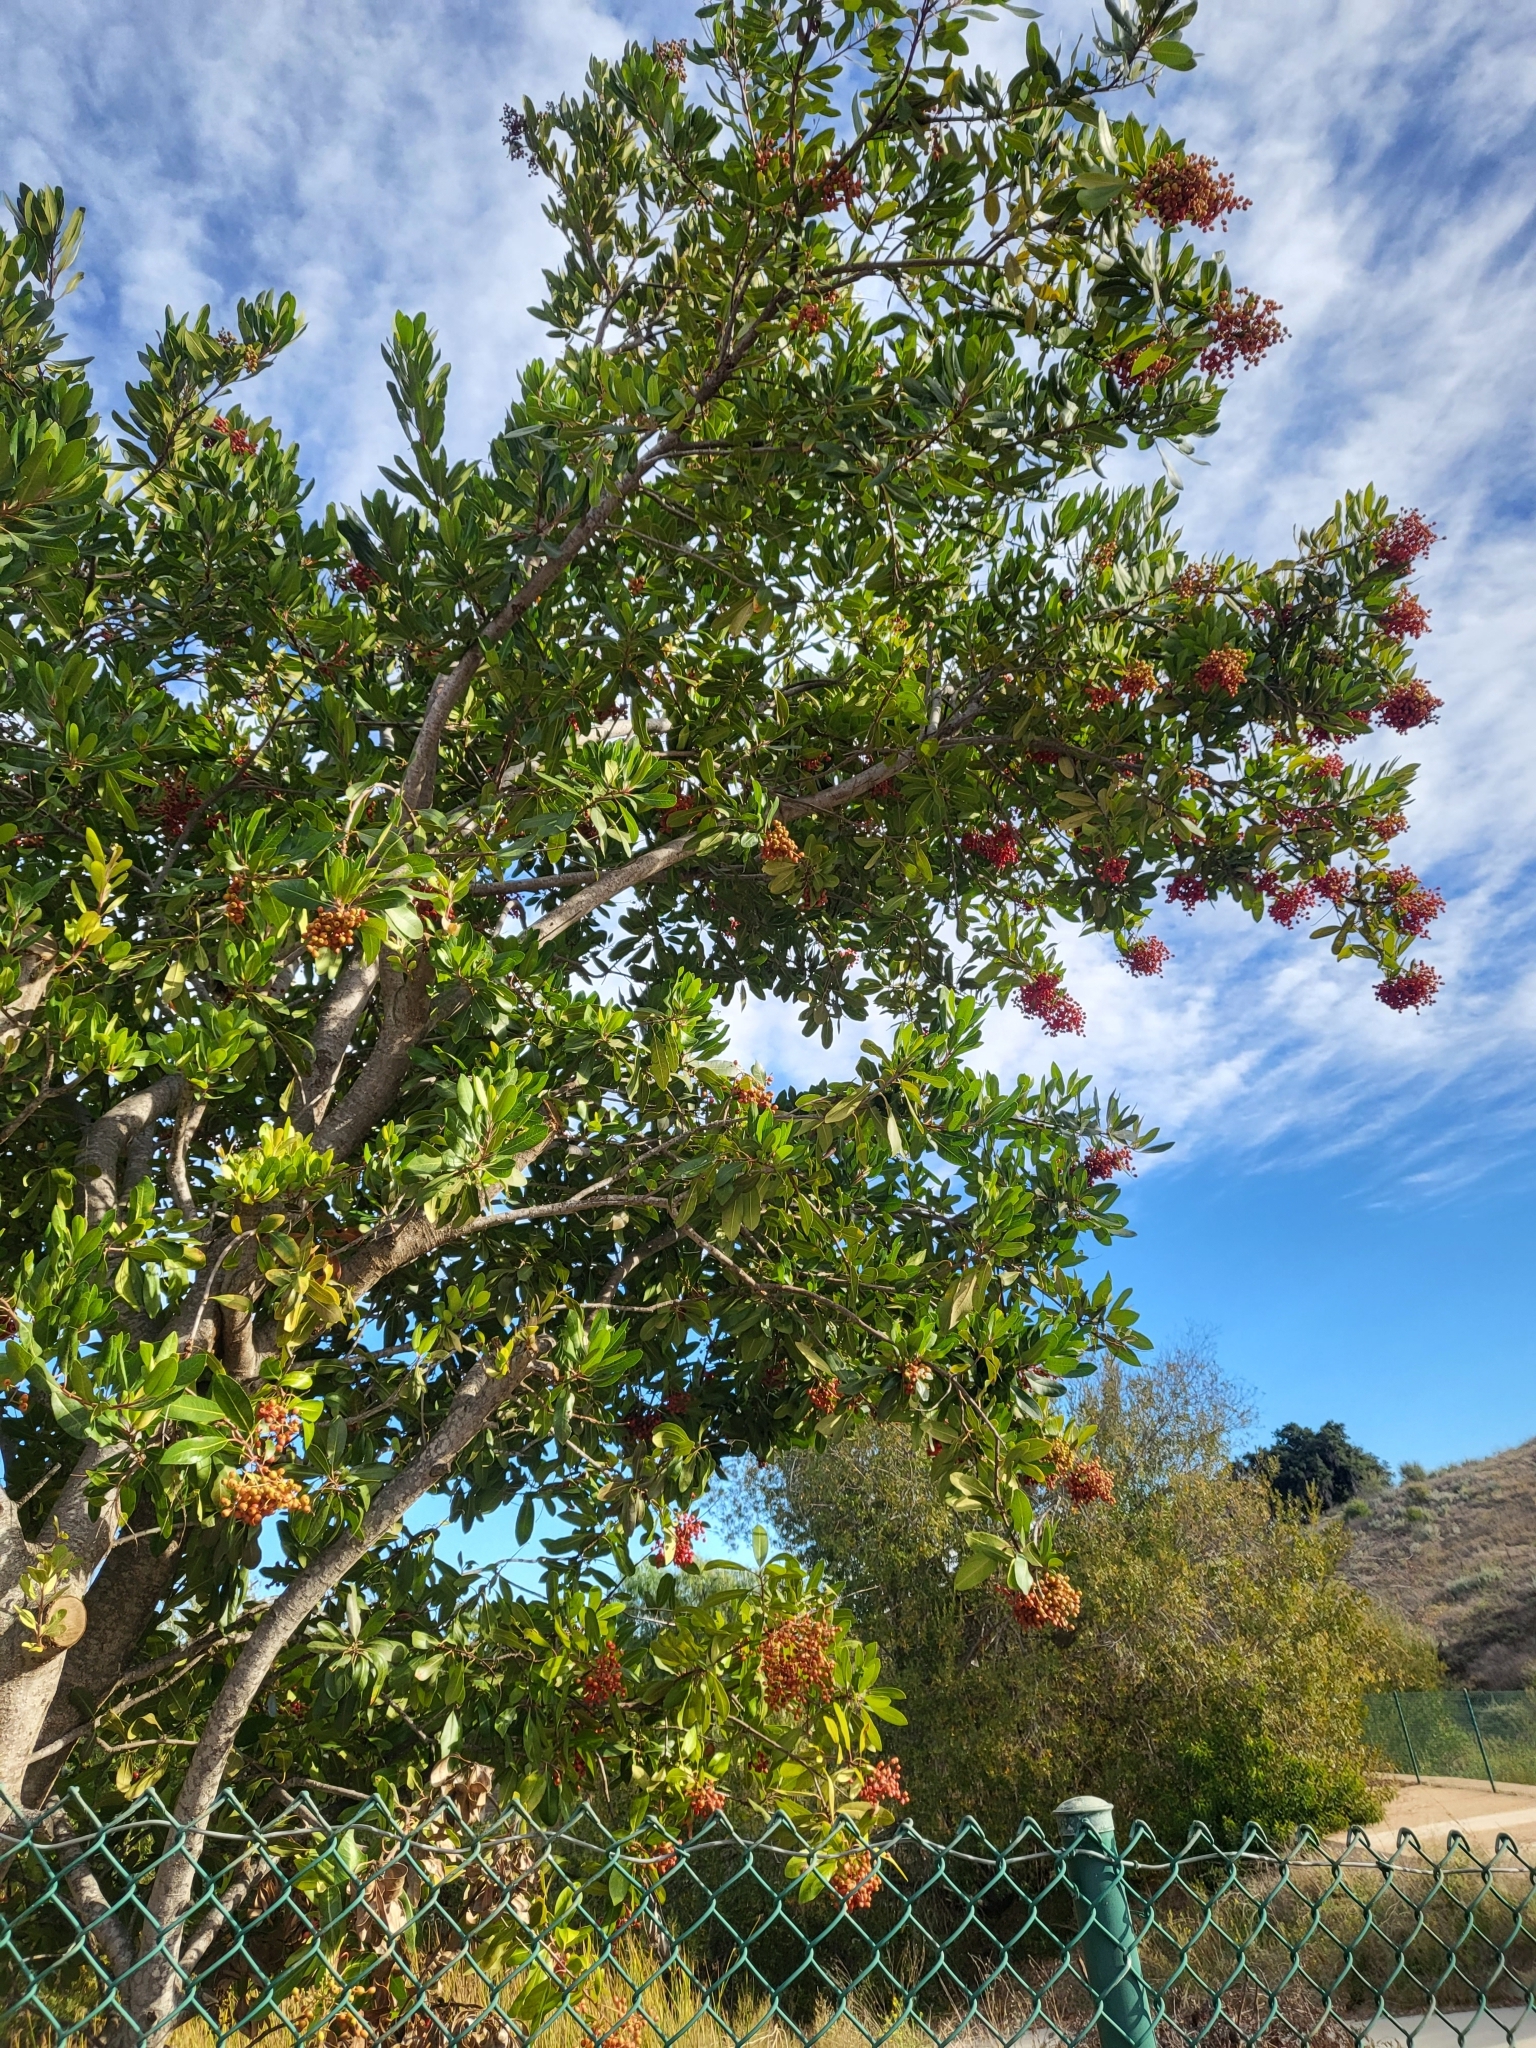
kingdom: Plantae
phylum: Tracheophyta
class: Magnoliopsida
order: Rosales
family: Rosaceae
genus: Heteromeles
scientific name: Heteromeles arbutifolia
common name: California-holly
